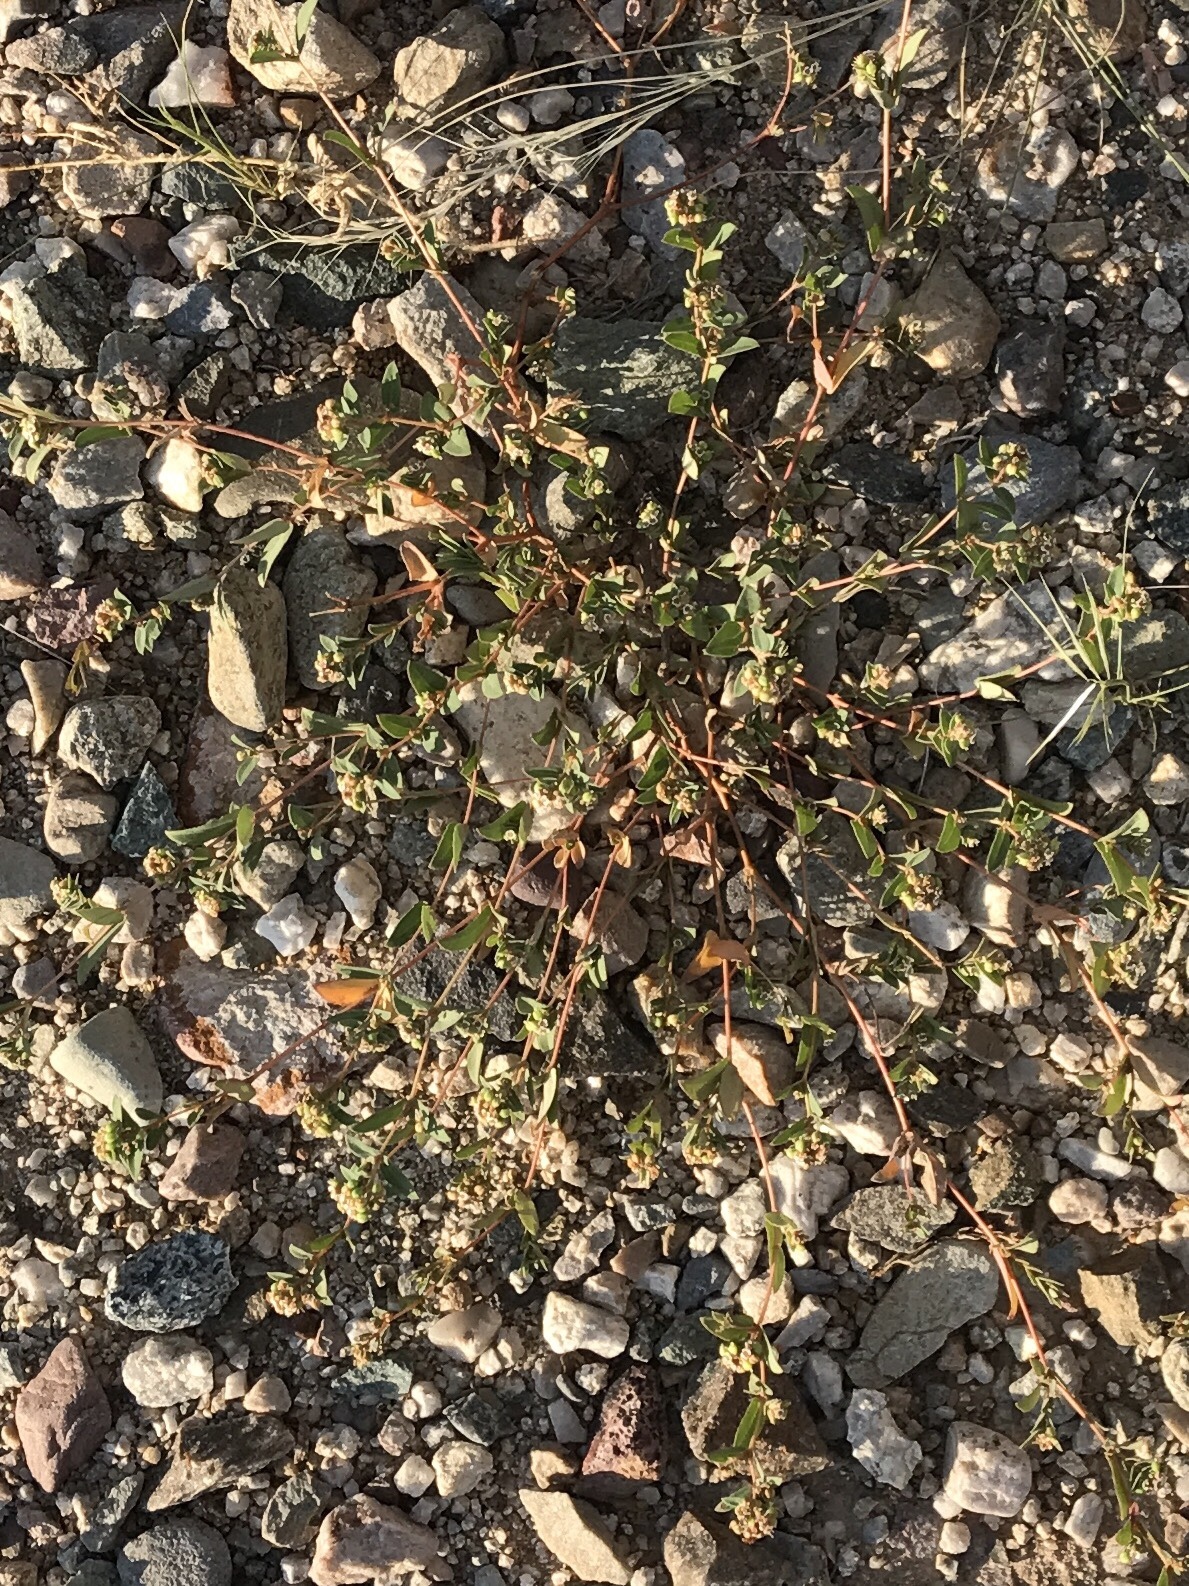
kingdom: Plantae
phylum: Tracheophyta
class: Magnoliopsida
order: Malpighiales
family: Euphorbiaceae
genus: Euphorbia
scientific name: Euphorbia capitellata
